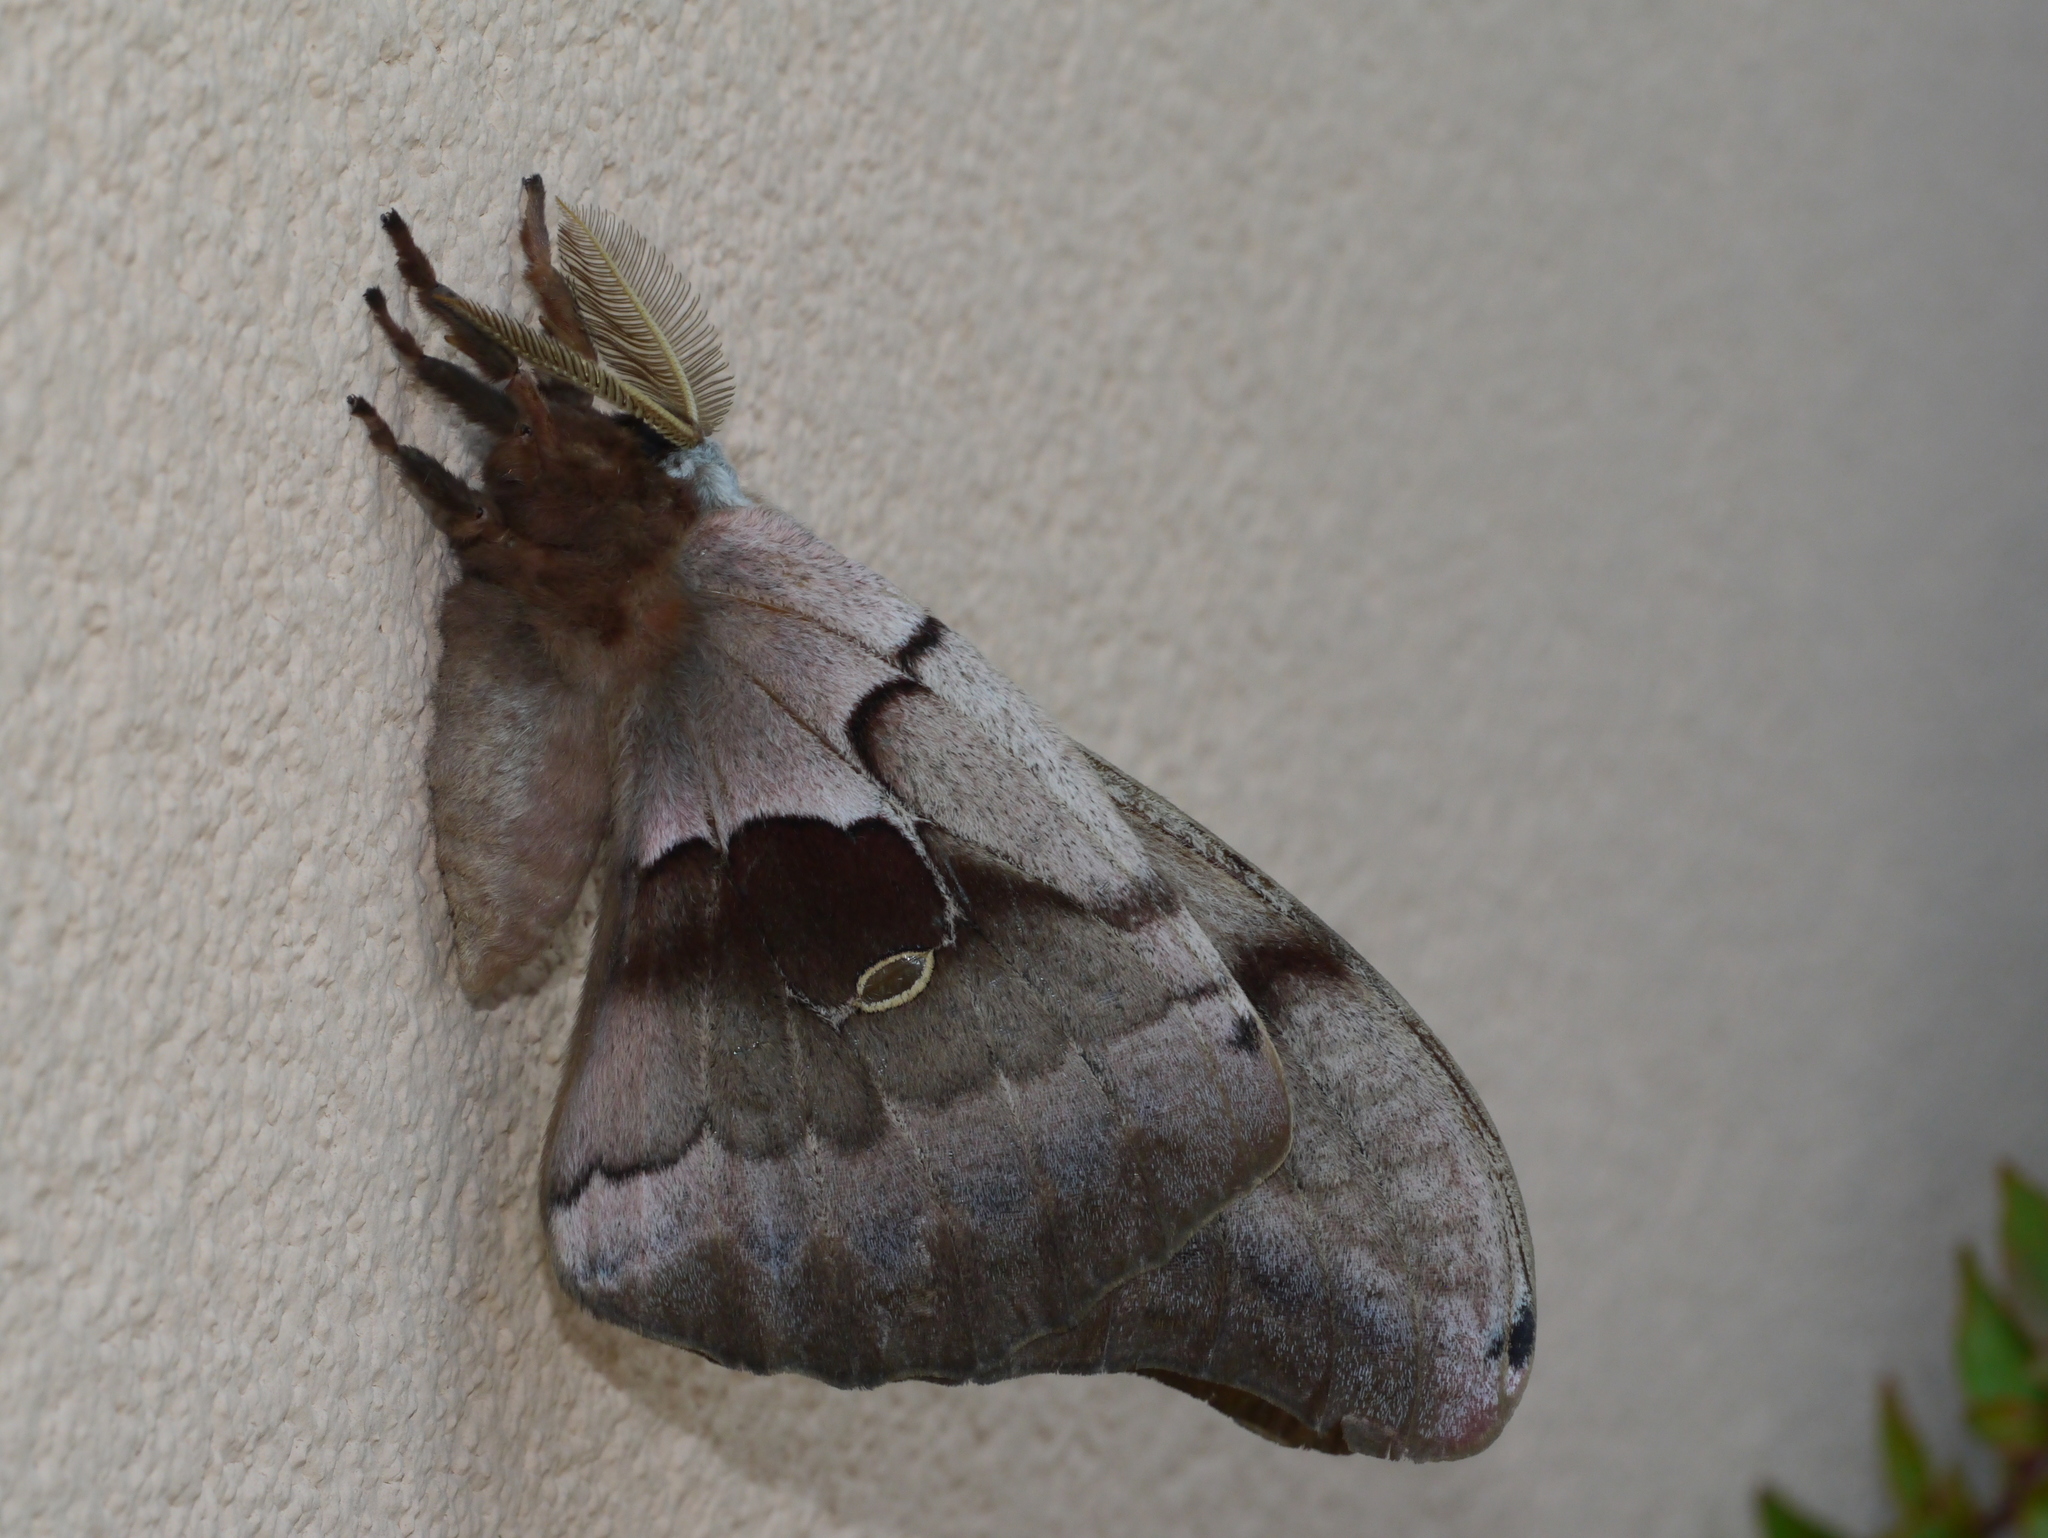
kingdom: Animalia
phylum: Arthropoda
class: Insecta
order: Lepidoptera
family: Saturniidae
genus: Antheraea
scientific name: Antheraea polyphemus
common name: Polyphemus moth
